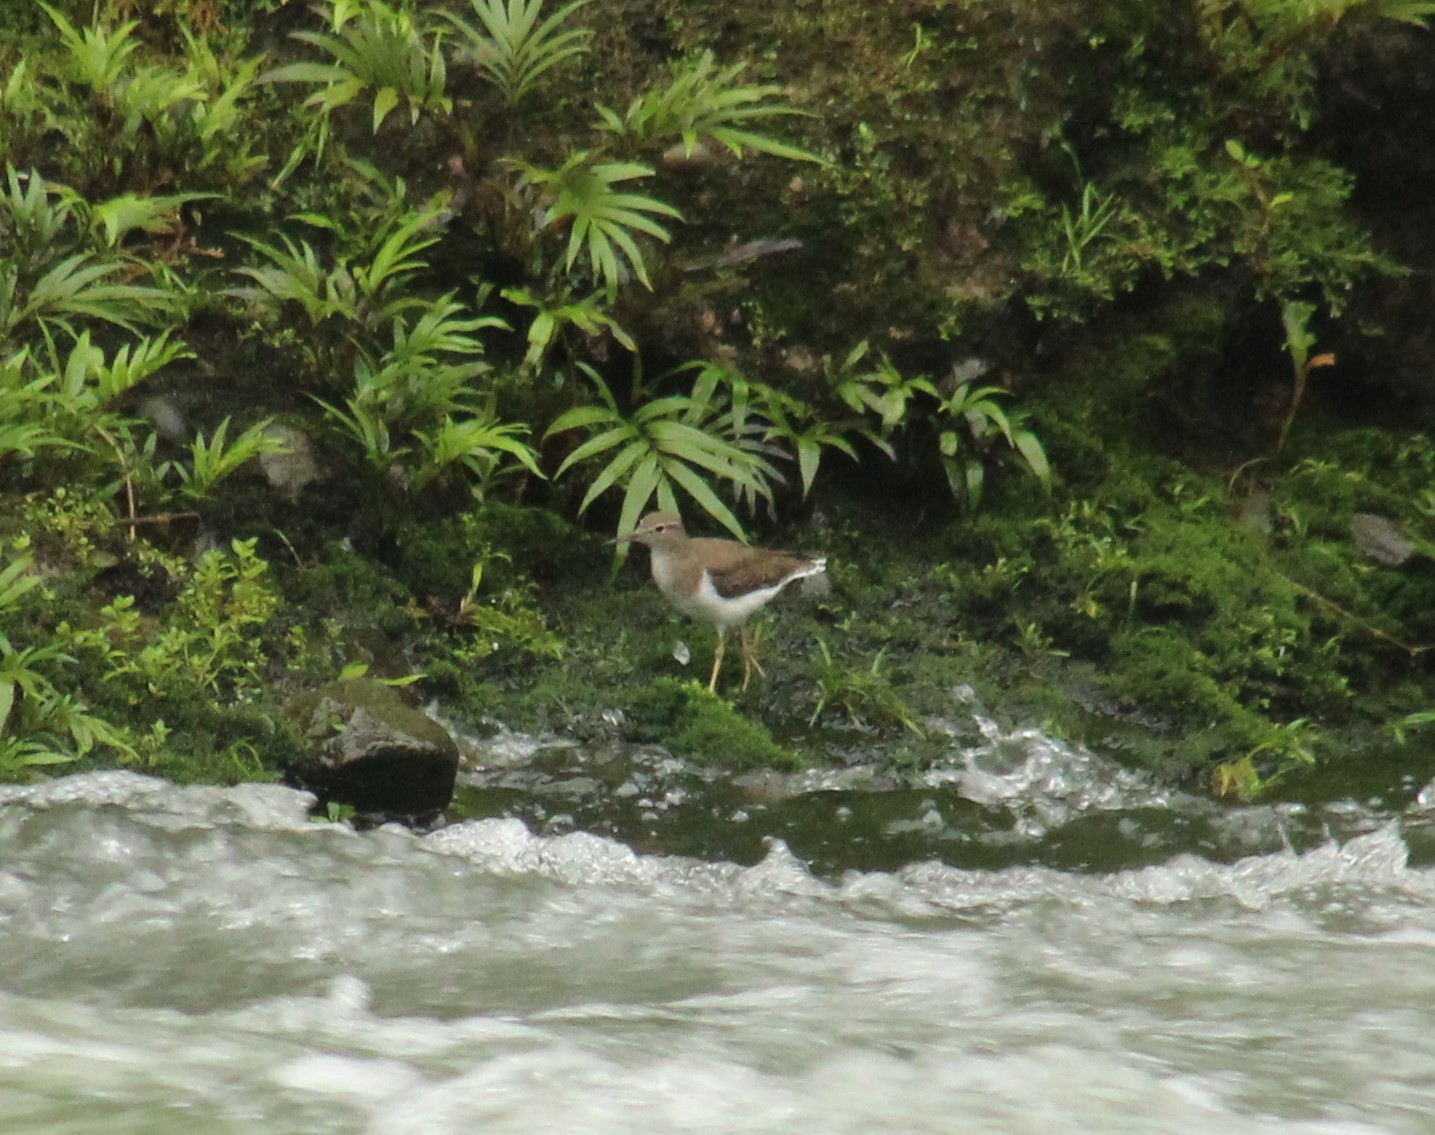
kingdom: Animalia
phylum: Chordata
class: Aves
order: Charadriiformes
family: Scolopacidae
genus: Actitis
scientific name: Actitis macularius
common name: Spotted sandpiper
